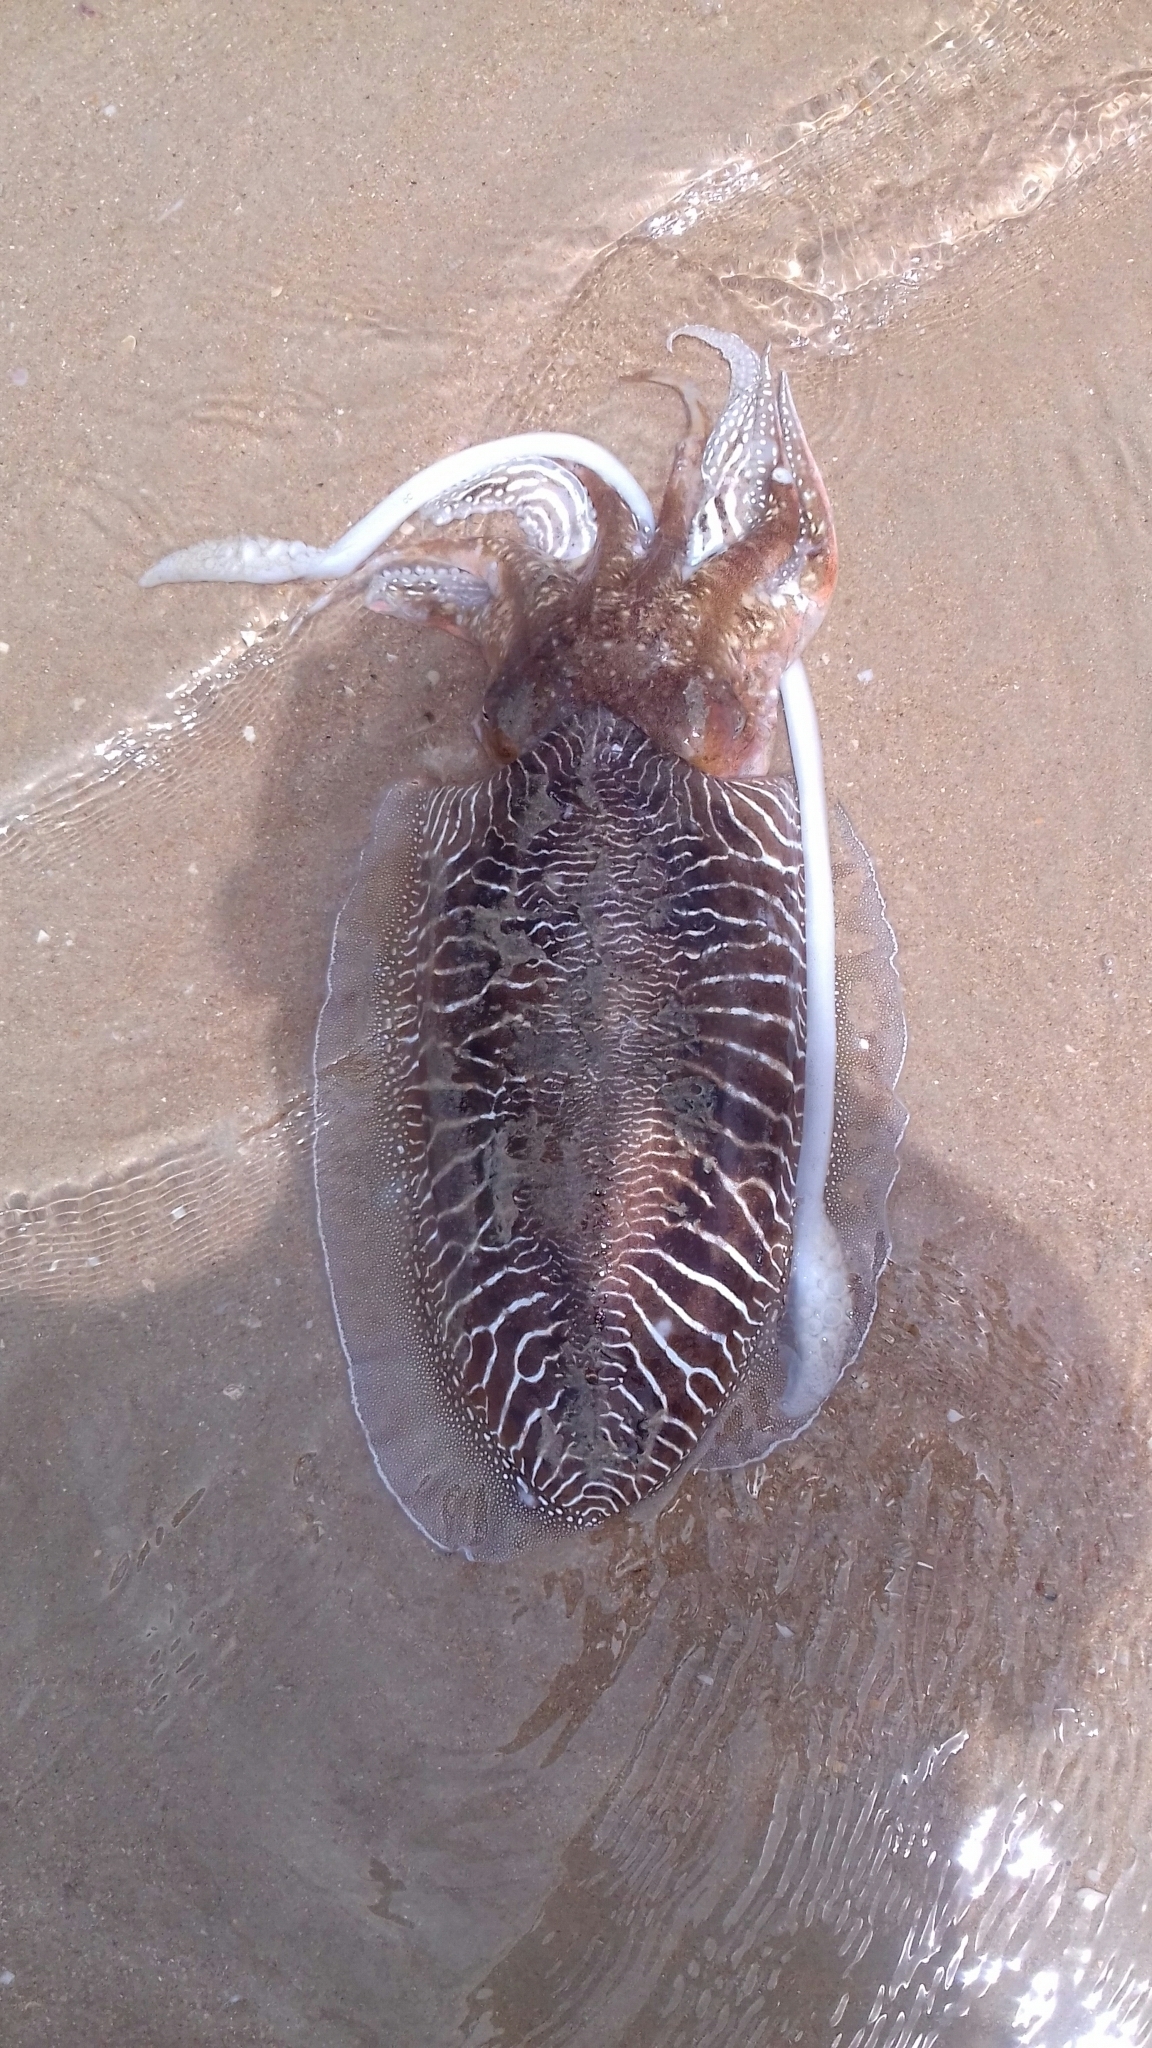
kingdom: Animalia
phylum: Mollusca
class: Cephalopoda
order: Sepiida
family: Sepiidae
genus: Sepia
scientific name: Sepia officinalis
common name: Common cuttlefish
